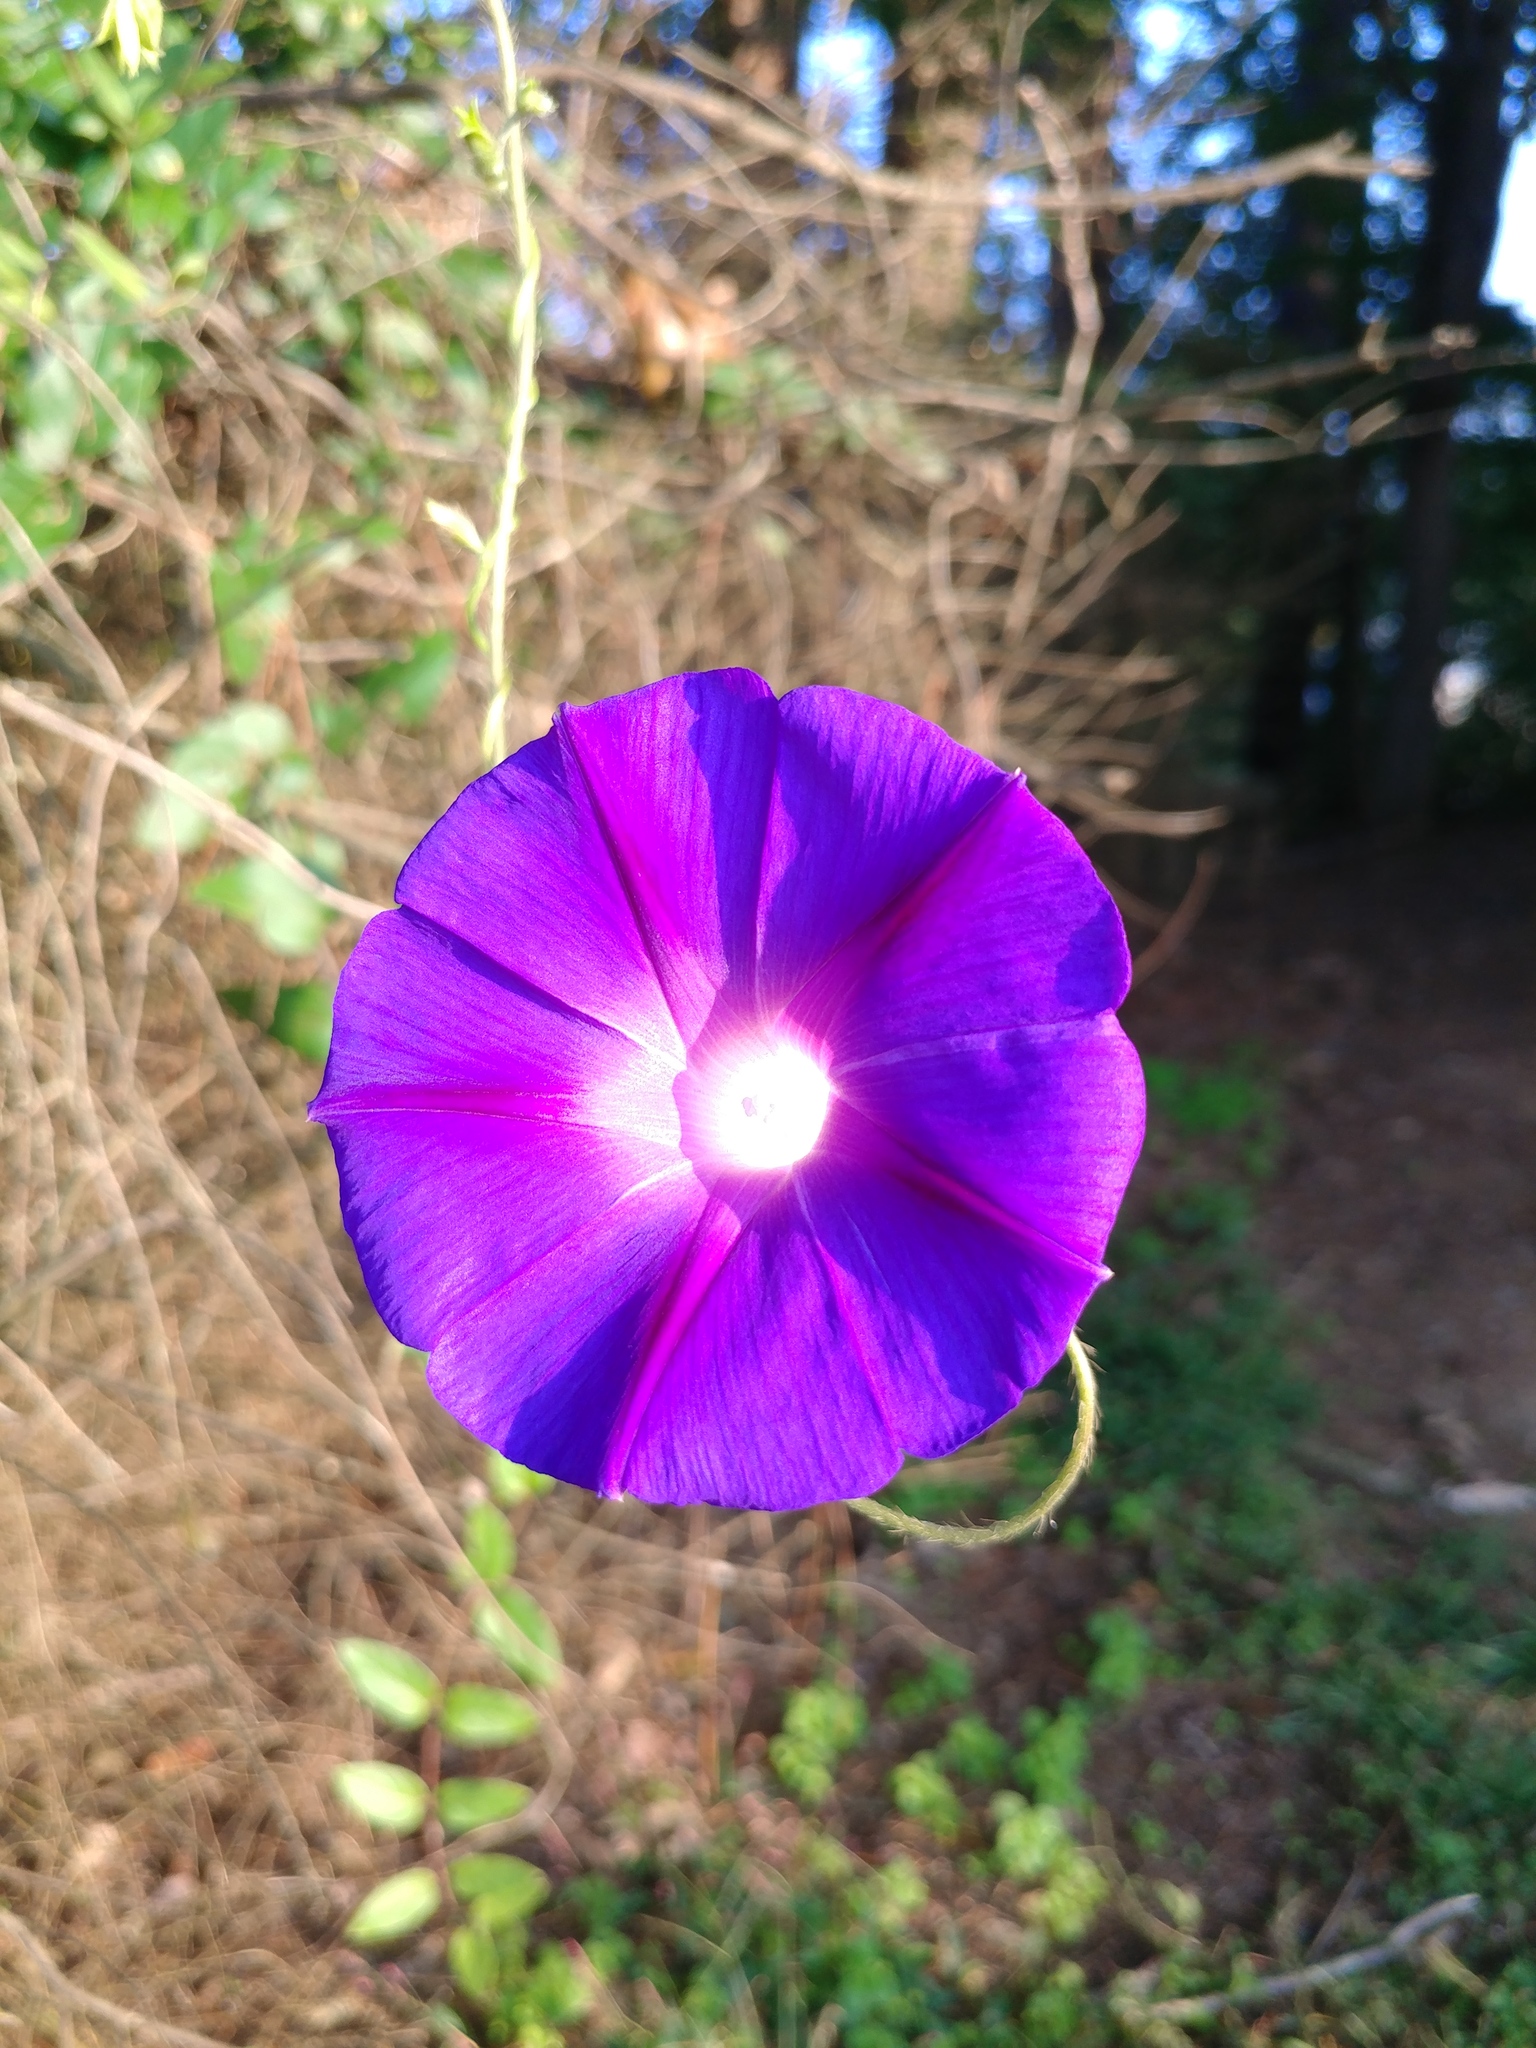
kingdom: Plantae
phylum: Tracheophyta
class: Magnoliopsida
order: Solanales
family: Convolvulaceae
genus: Ipomoea
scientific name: Ipomoea purpurea
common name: Common morning-glory
